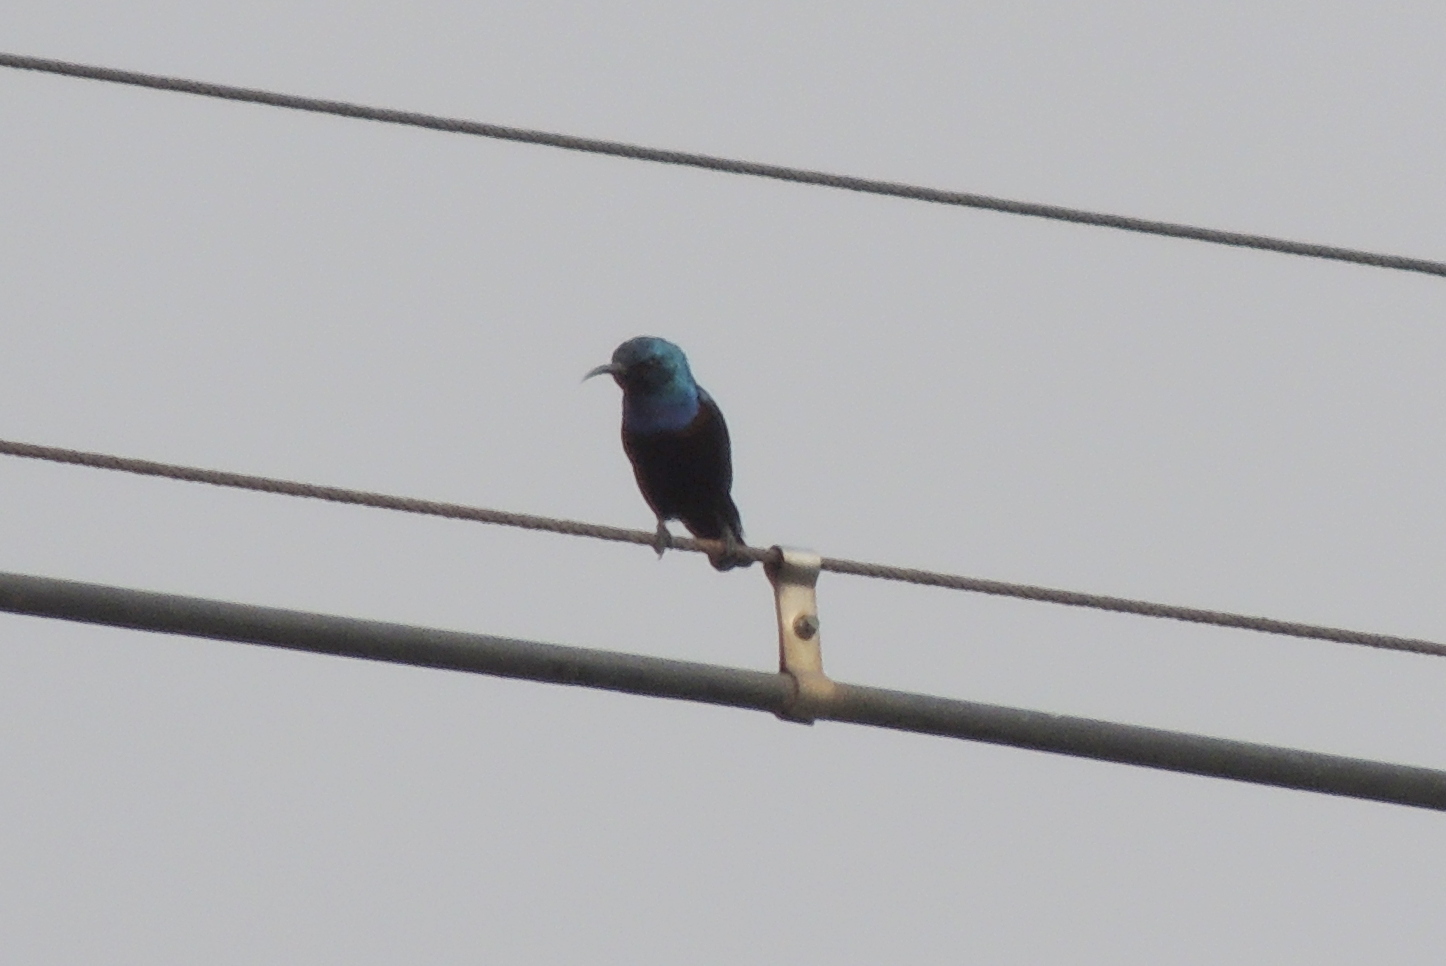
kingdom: Animalia
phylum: Chordata
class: Aves
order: Passeriformes
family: Nectariniidae
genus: Cinnyris
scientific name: Cinnyris asiaticus
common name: Purple sunbird
